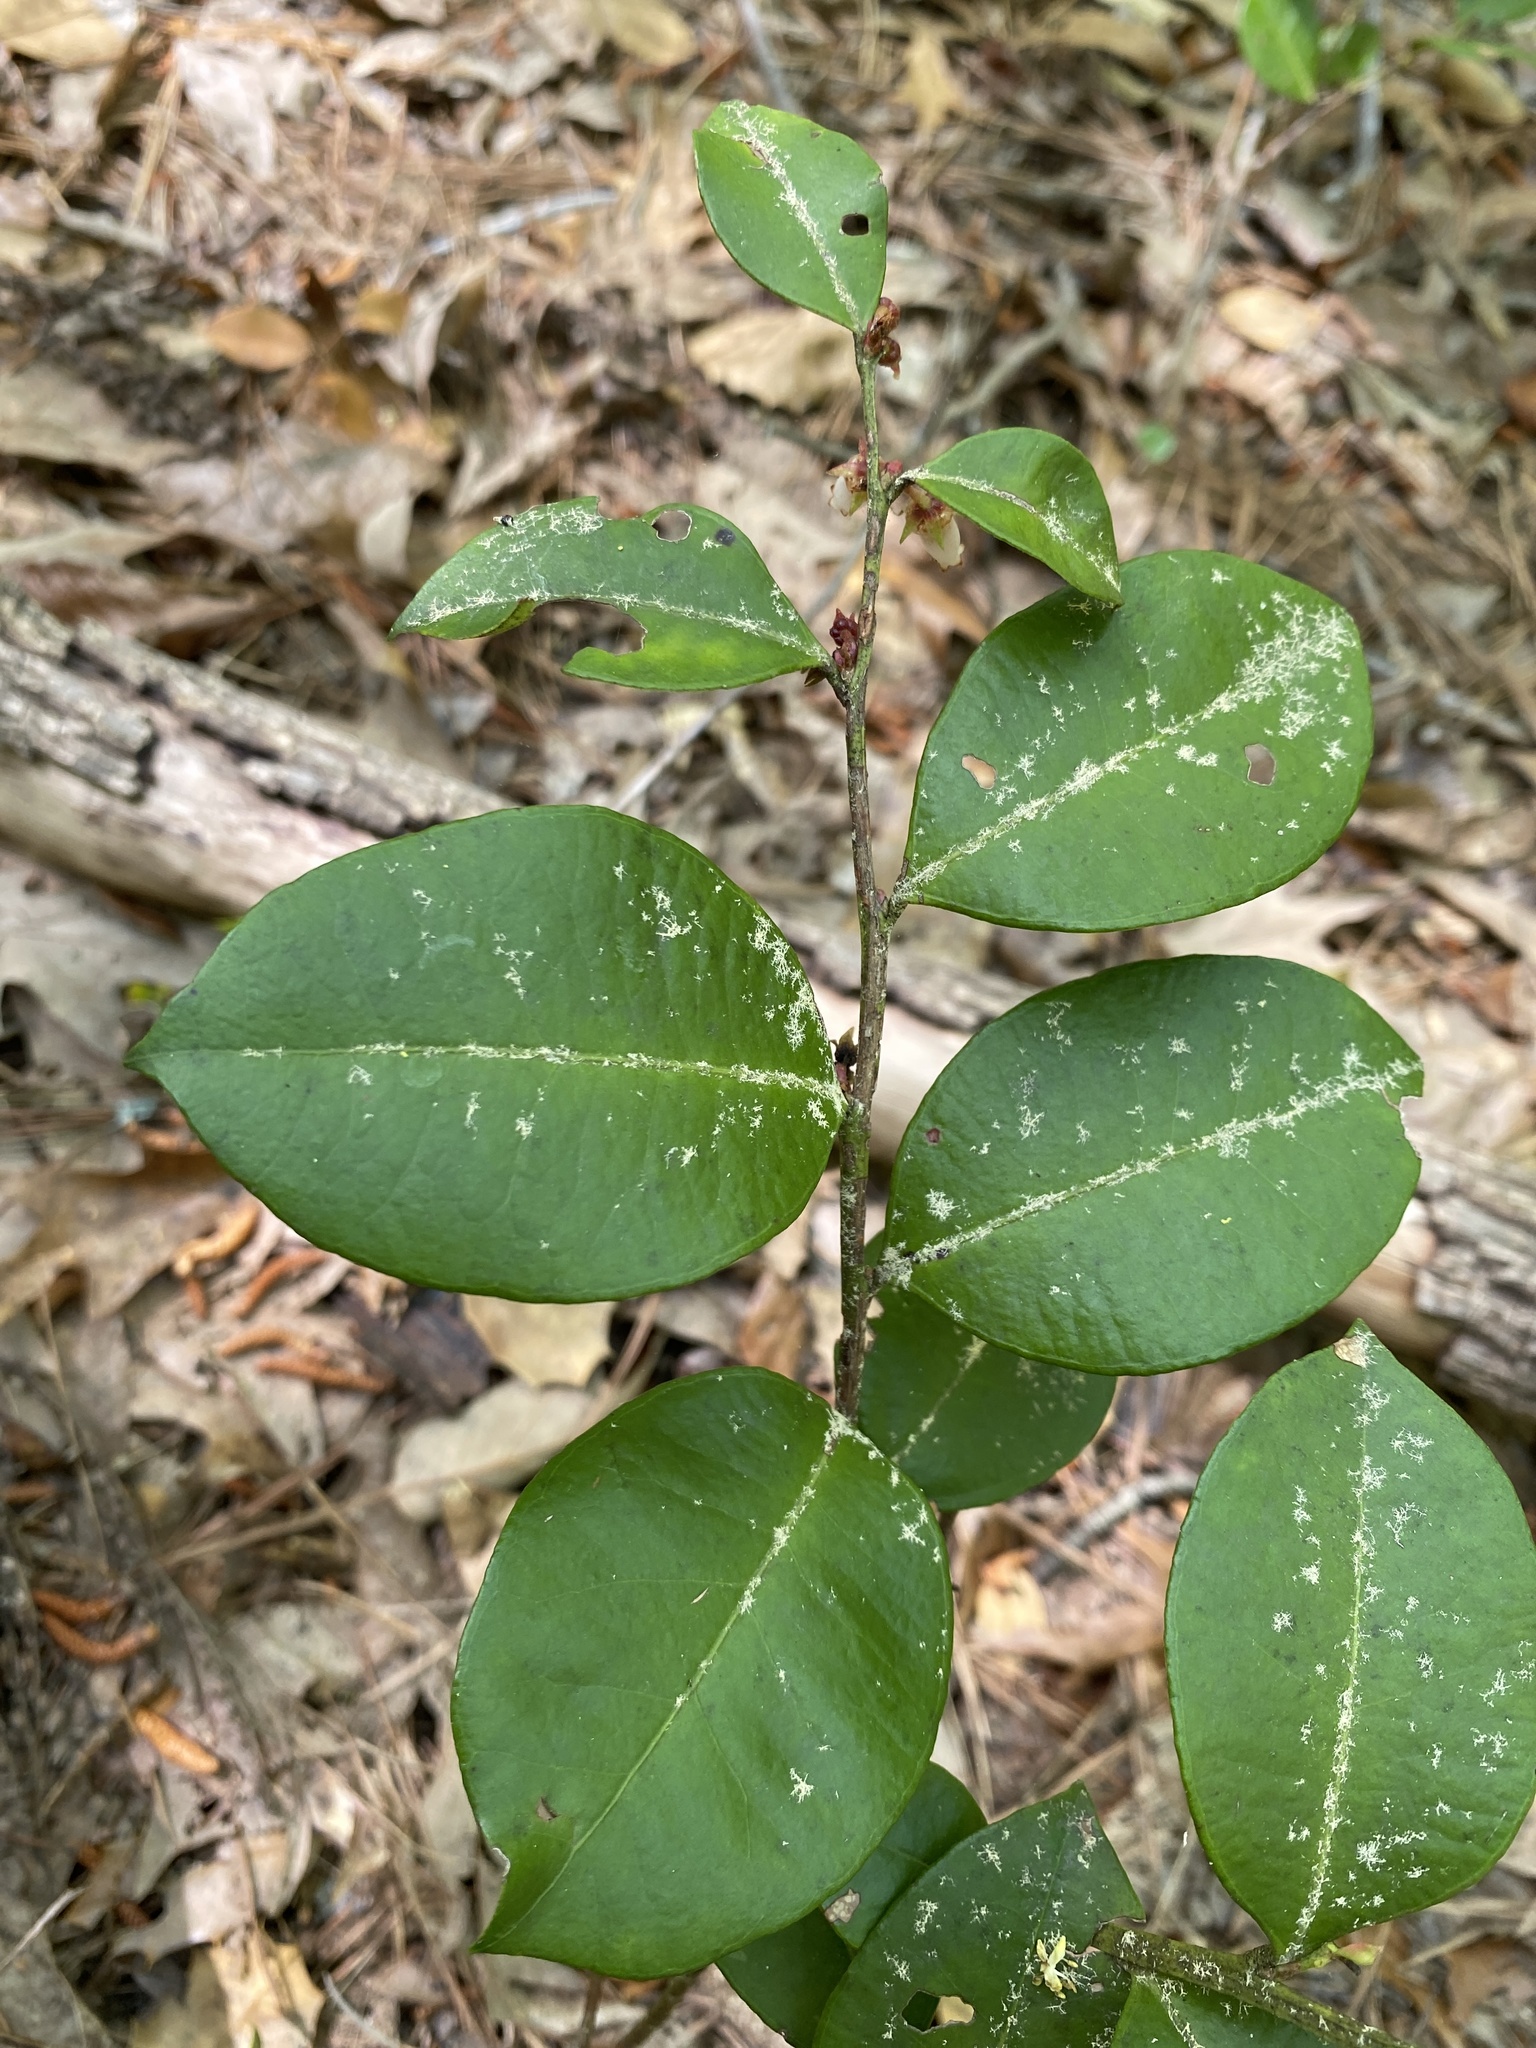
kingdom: Plantae
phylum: Tracheophyta
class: Magnoliopsida
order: Ericales
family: Ericaceae
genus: Lyonia
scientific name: Lyonia lucida
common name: Fetterbush
